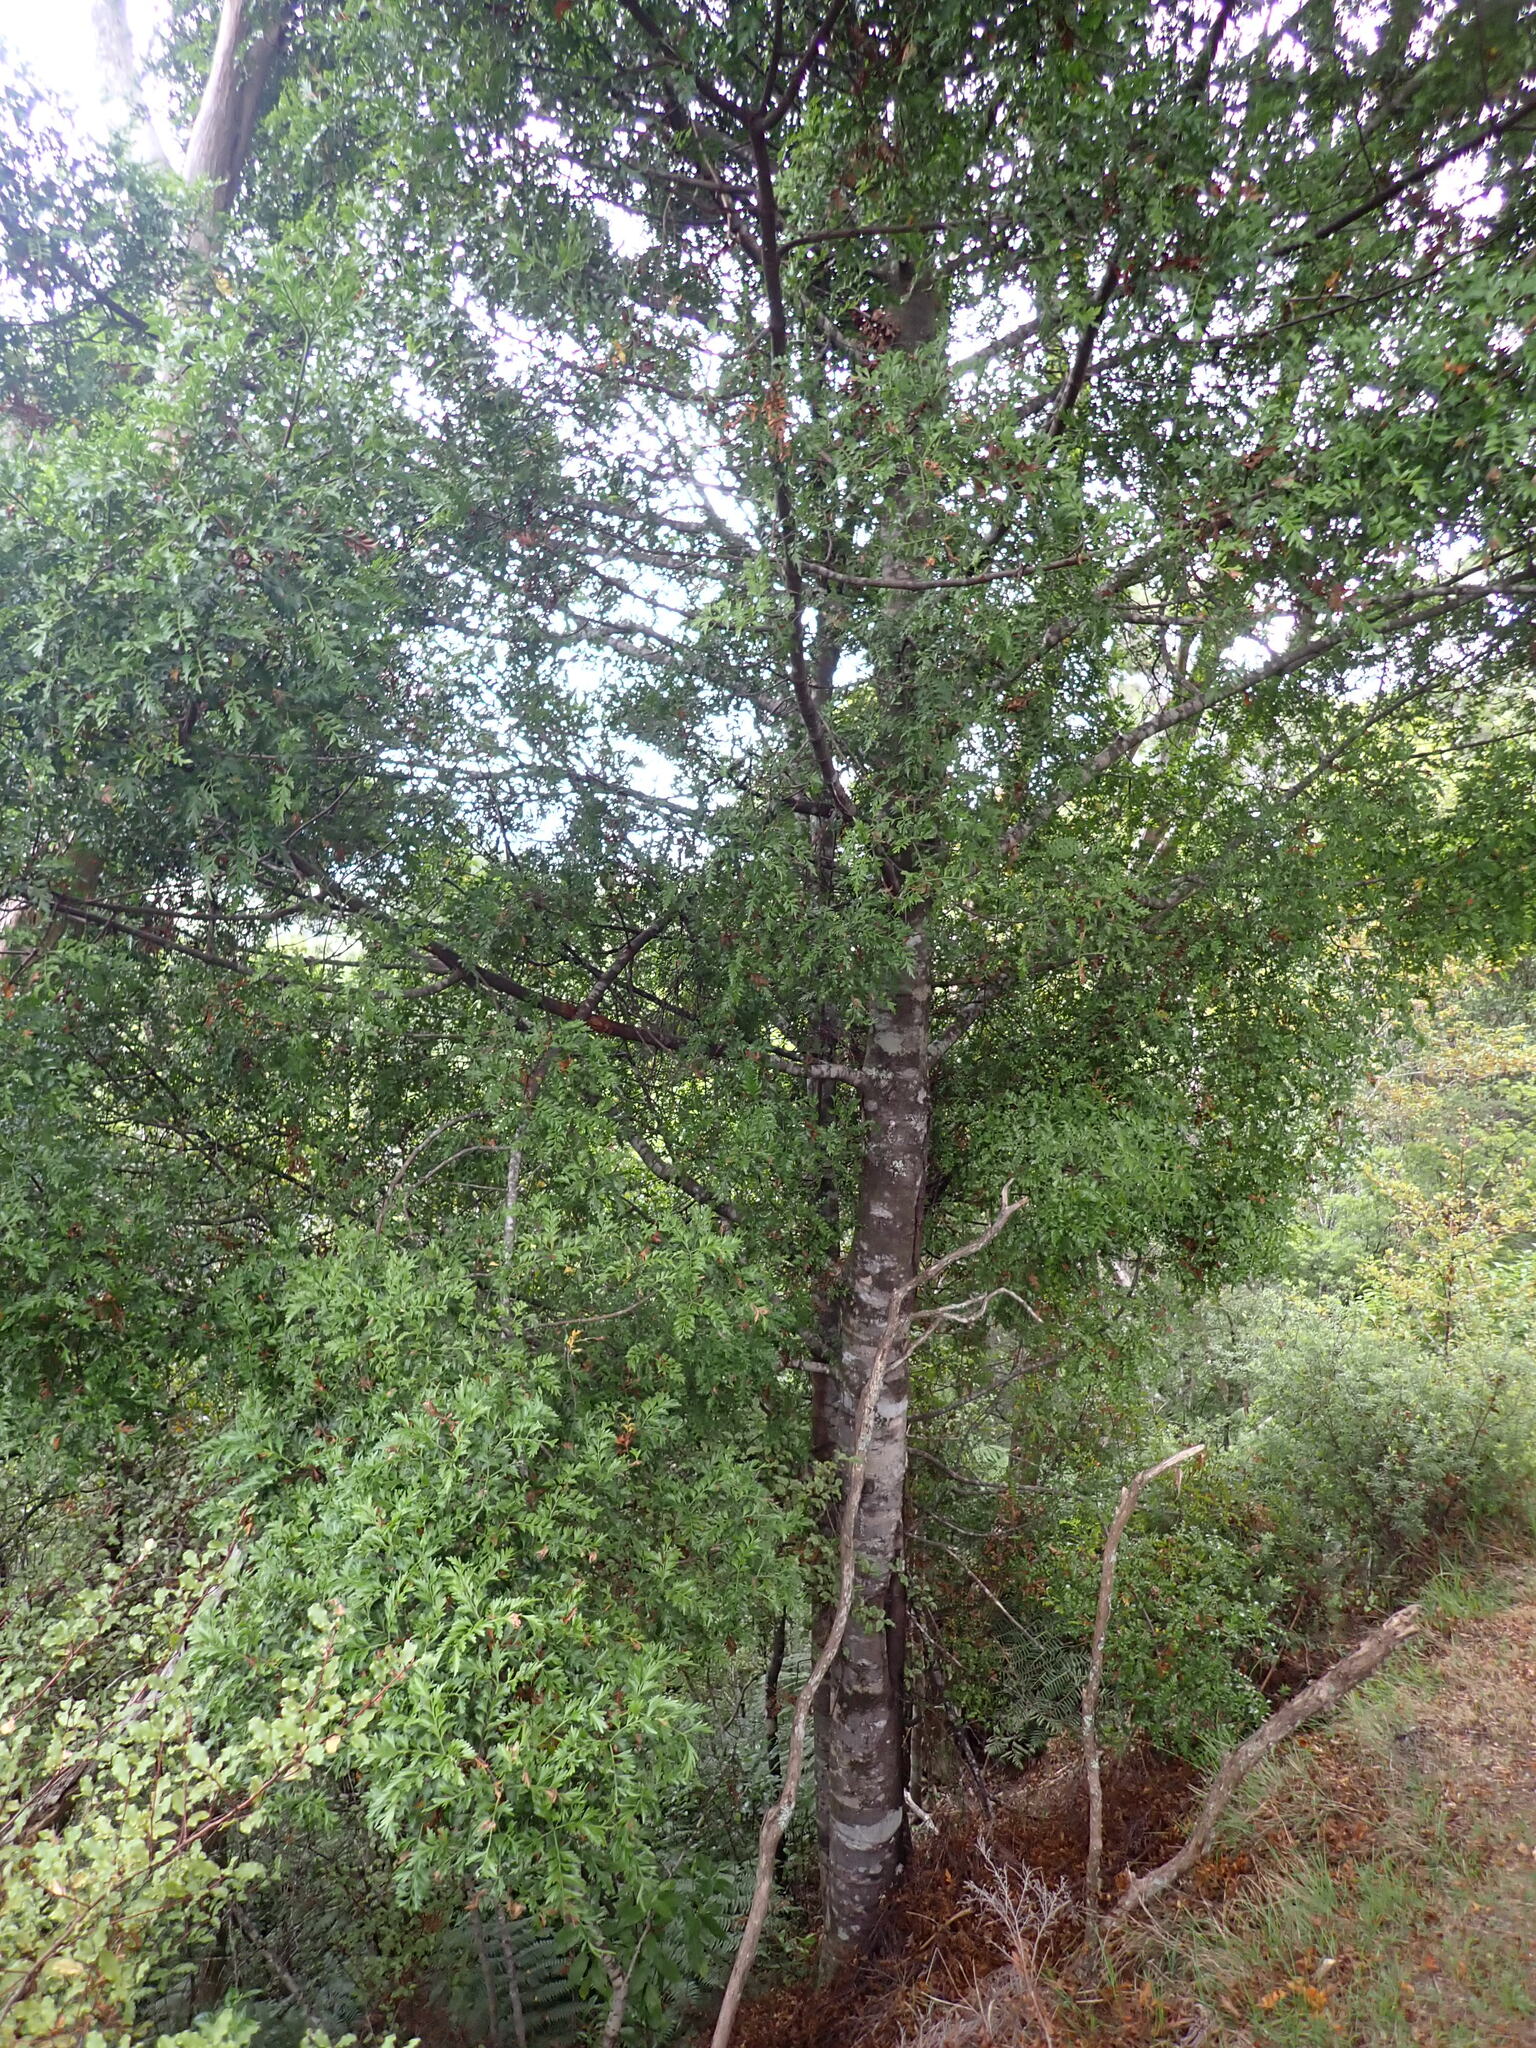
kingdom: Plantae
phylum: Tracheophyta
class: Pinopsida
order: Pinales
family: Phyllocladaceae
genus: Phyllocladus
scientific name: Phyllocladus trichomanoides
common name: Celery pine
